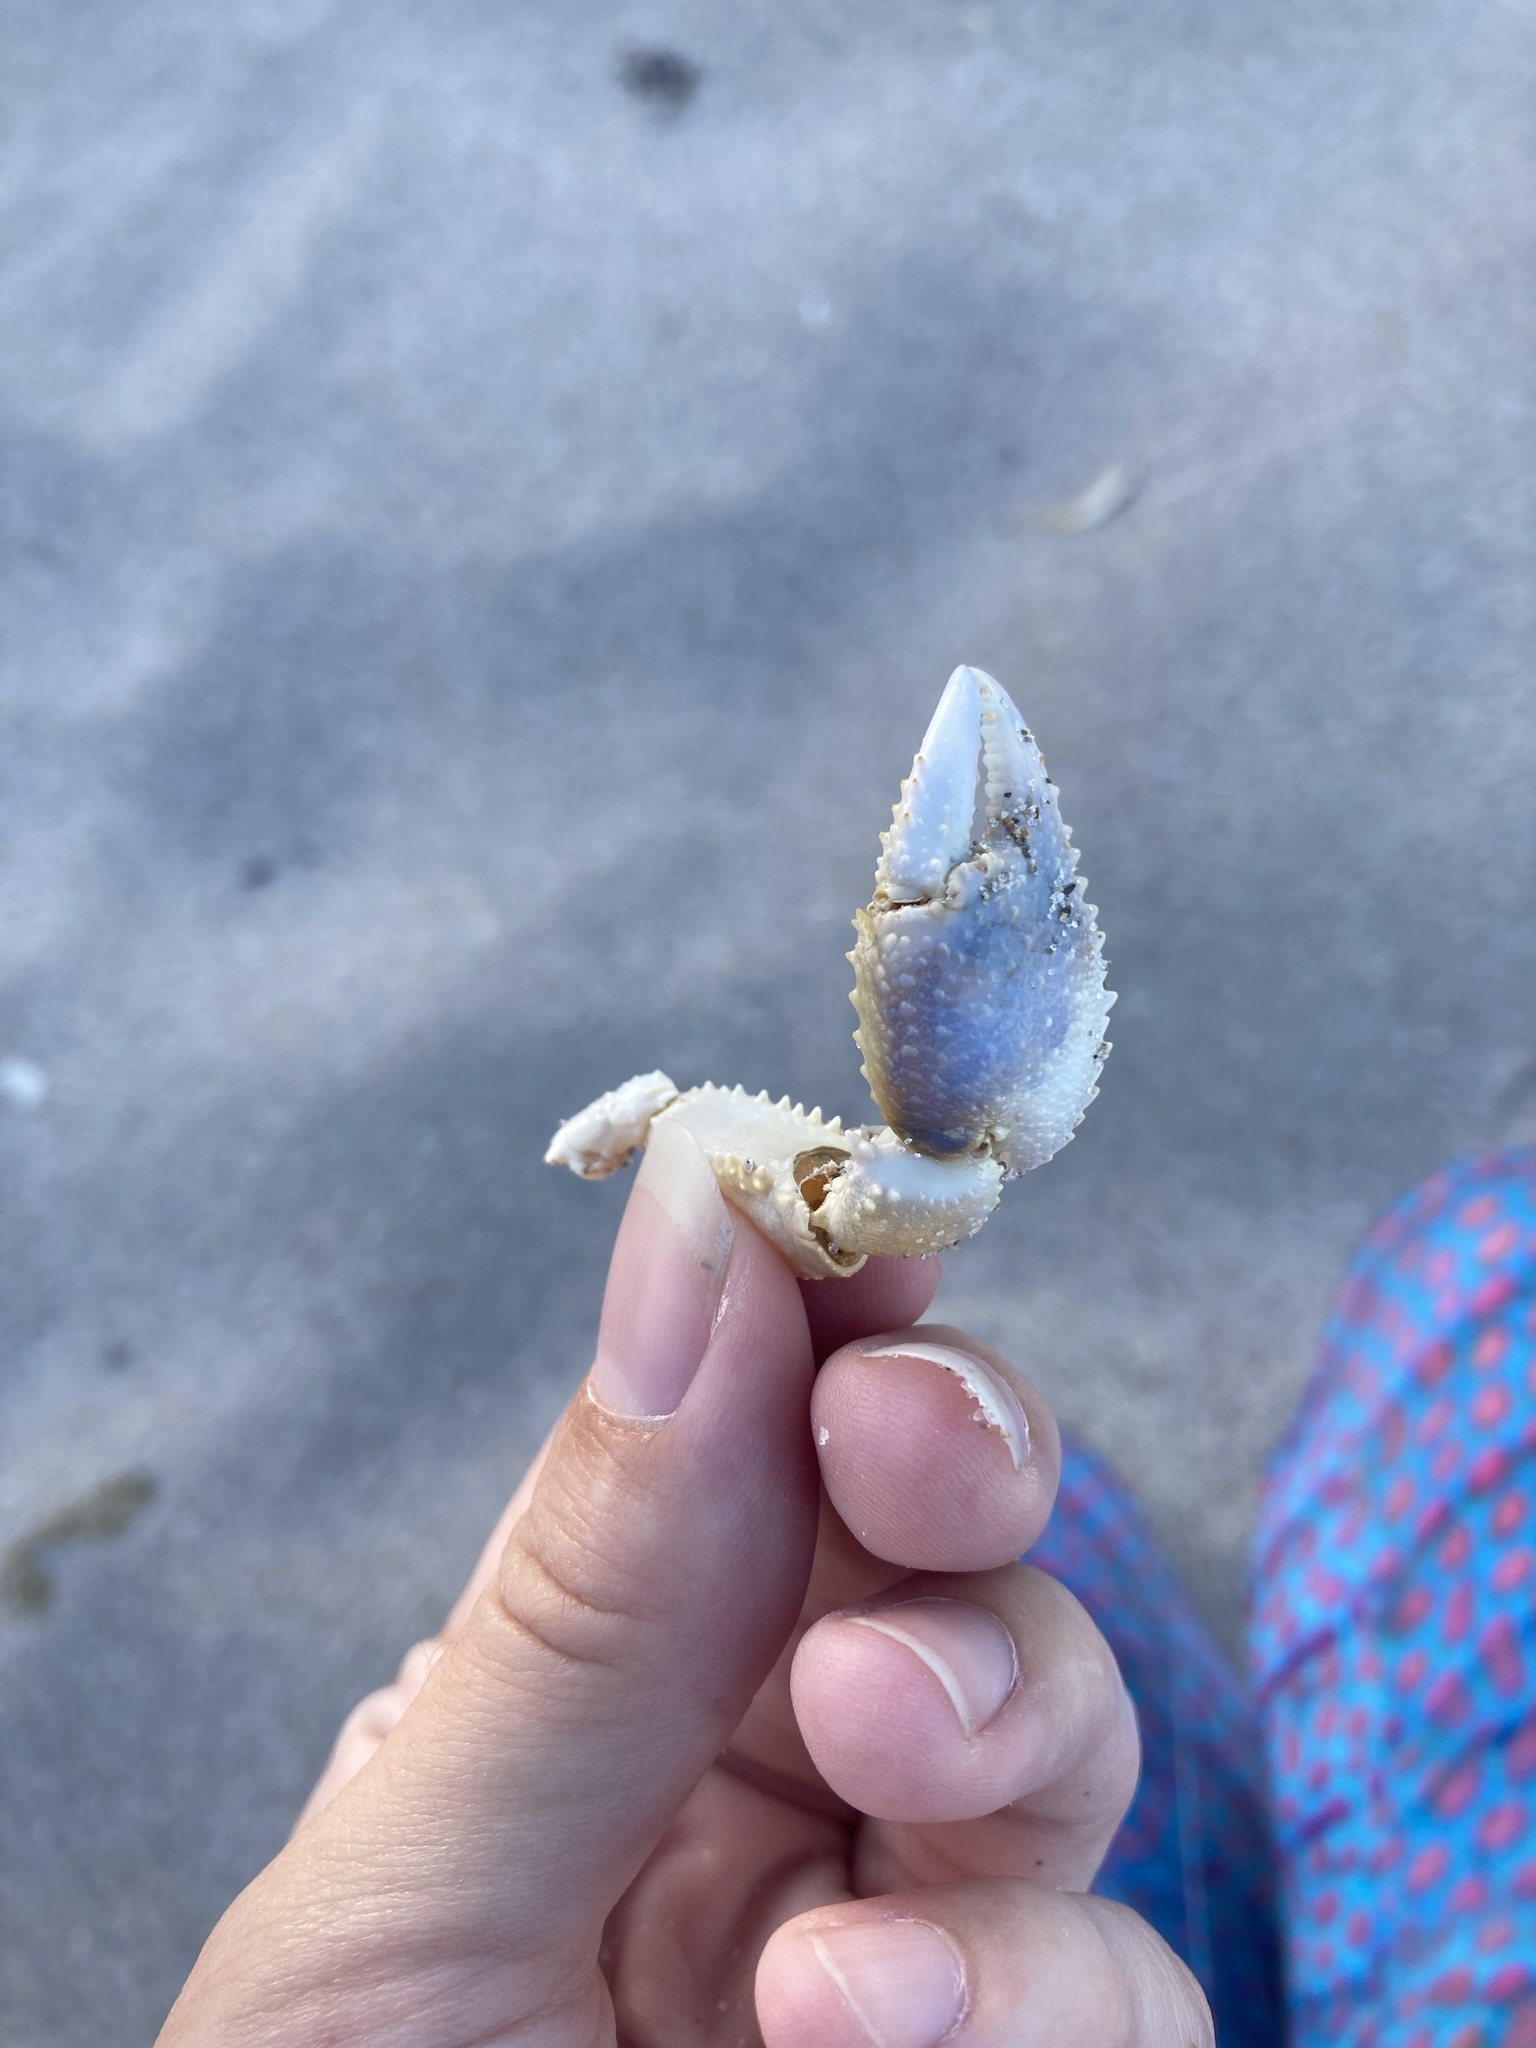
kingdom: Animalia
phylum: Arthropoda
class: Malacostraca
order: Decapoda
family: Ocypodidae
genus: Ocypode
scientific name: Ocypode quadrata
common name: Ghost crab
